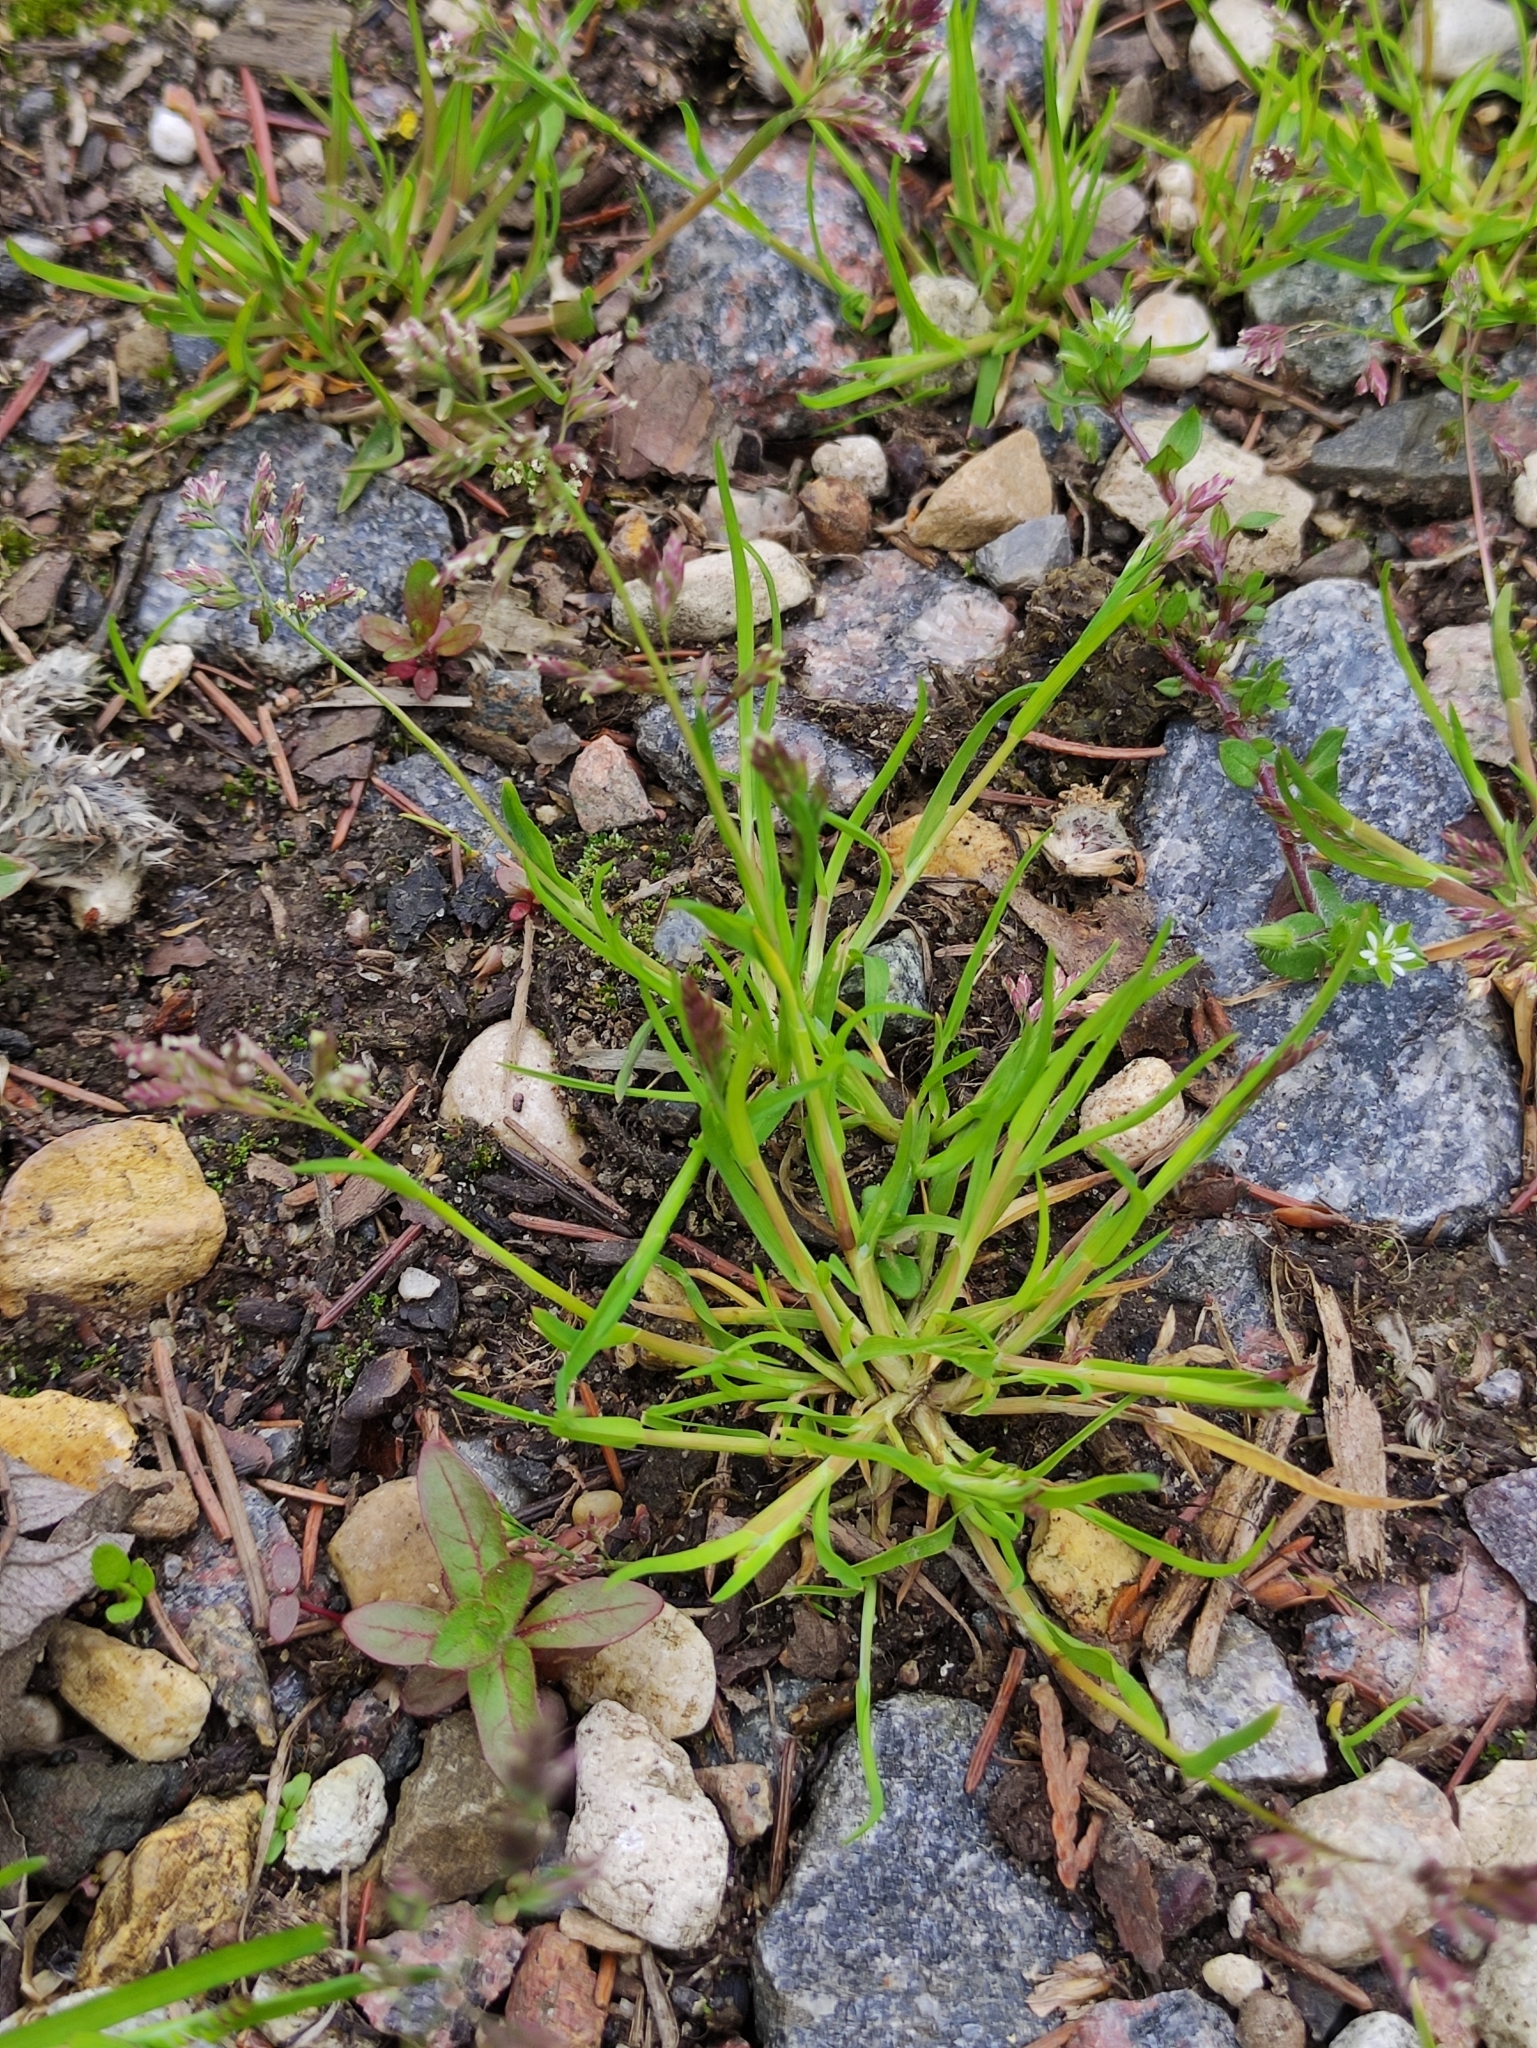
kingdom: Plantae
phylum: Tracheophyta
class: Liliopsida
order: Poales
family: Poaceae
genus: Poa
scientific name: Poa annua
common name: Annual bluegrass
